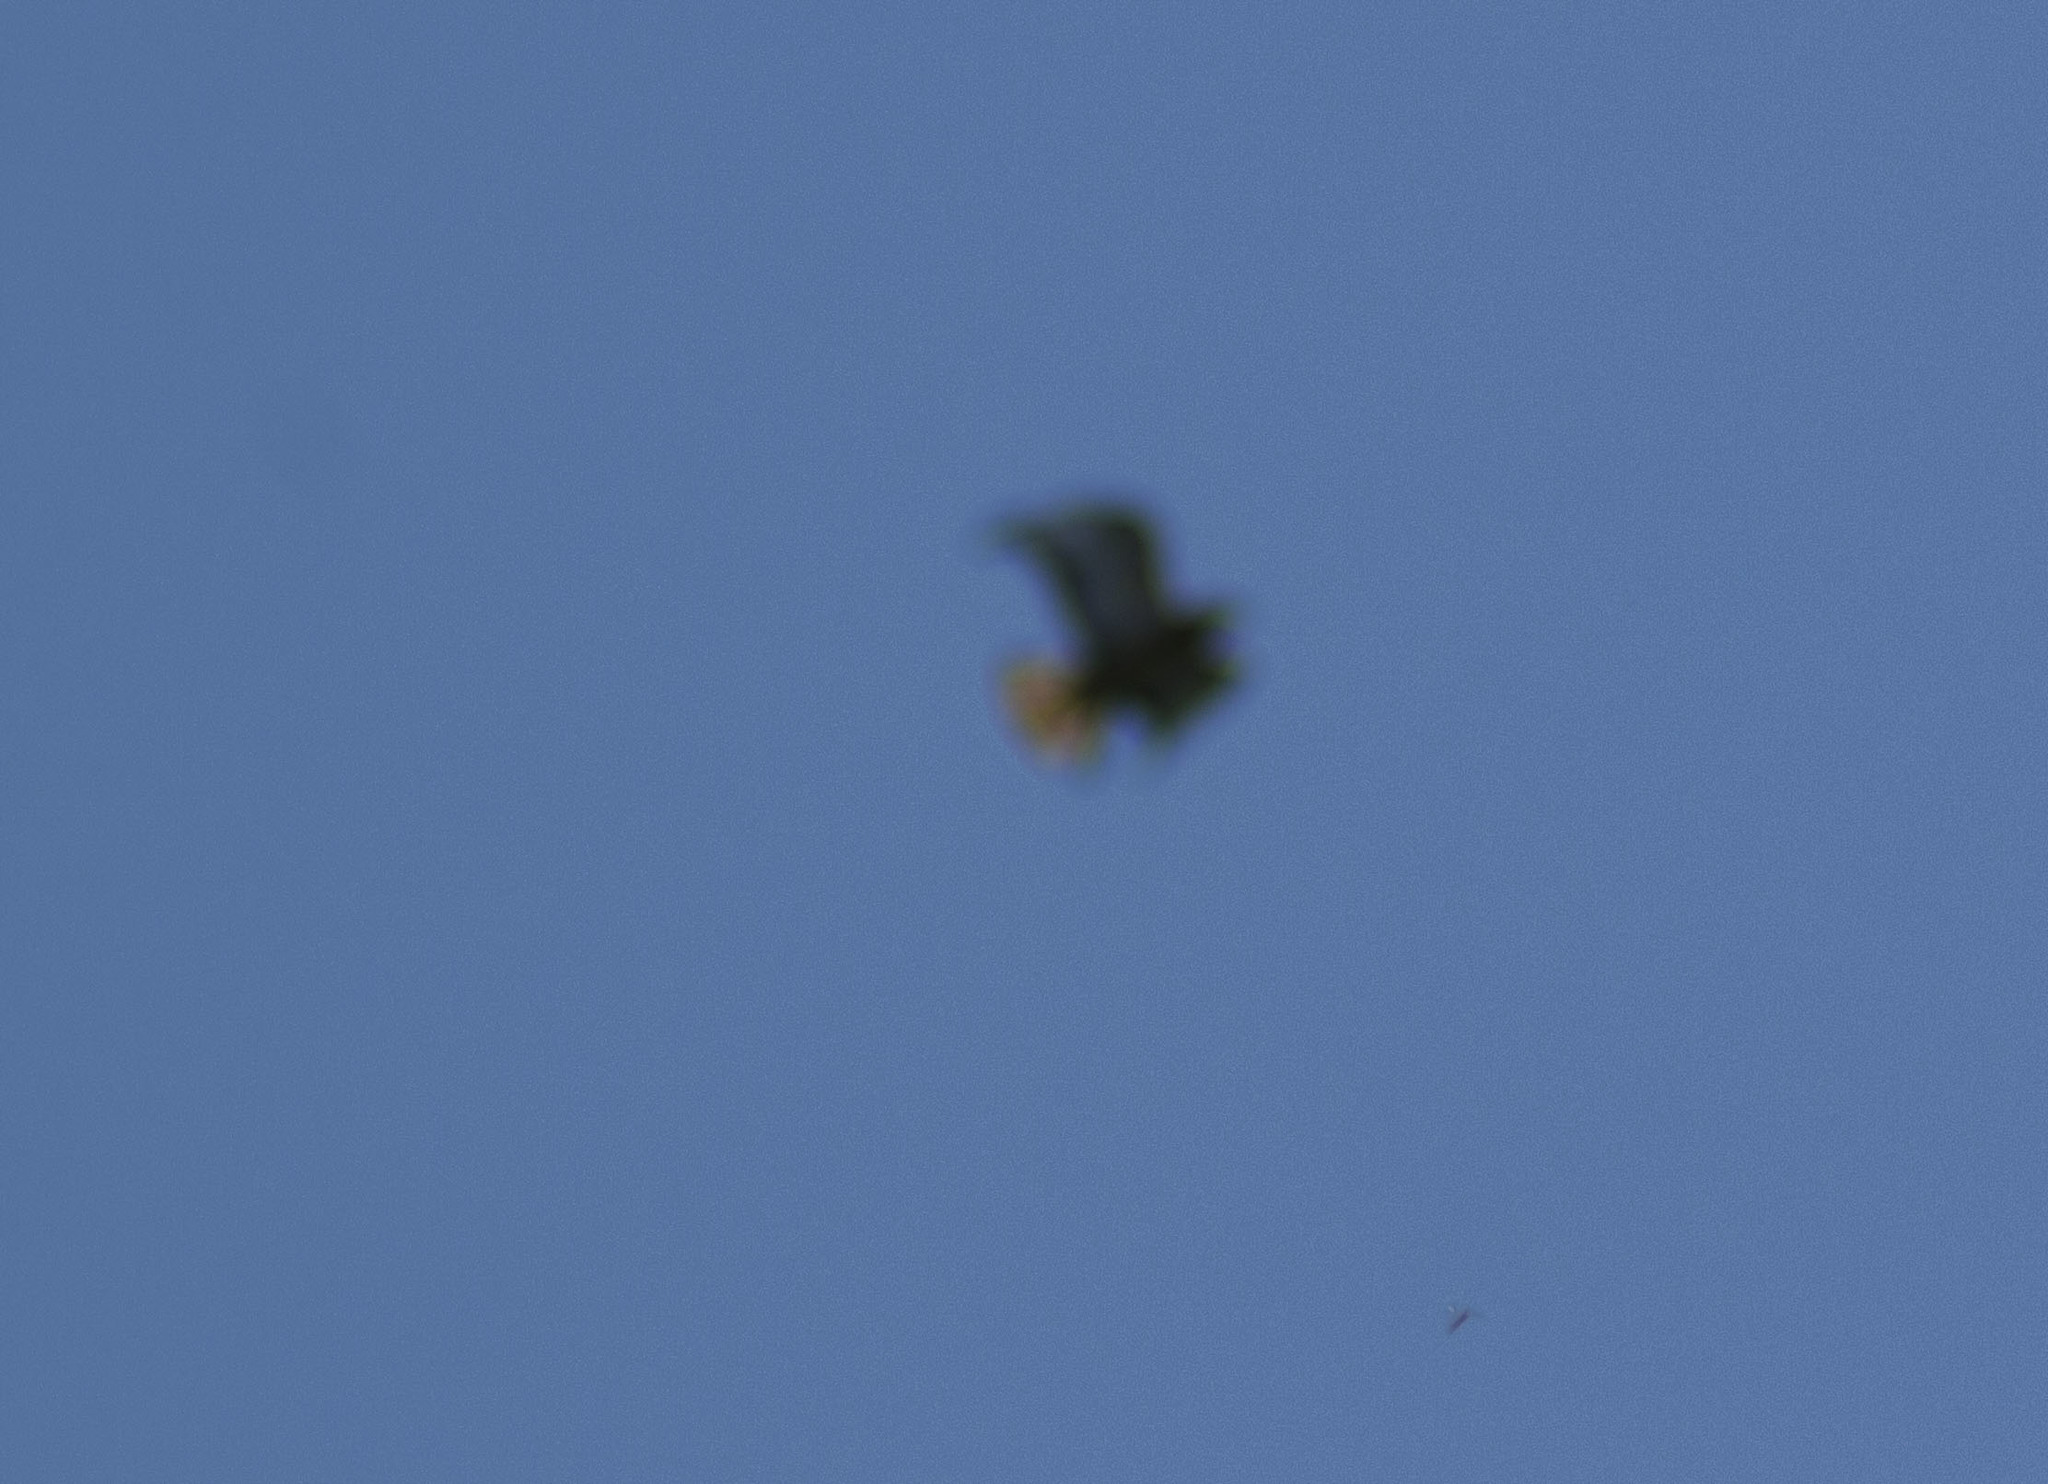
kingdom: Animalia
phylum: Chordata
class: Aves
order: Accipitriformes
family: Accipitridae
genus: Buteo
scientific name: Buteo buteo
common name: Common buzzard
